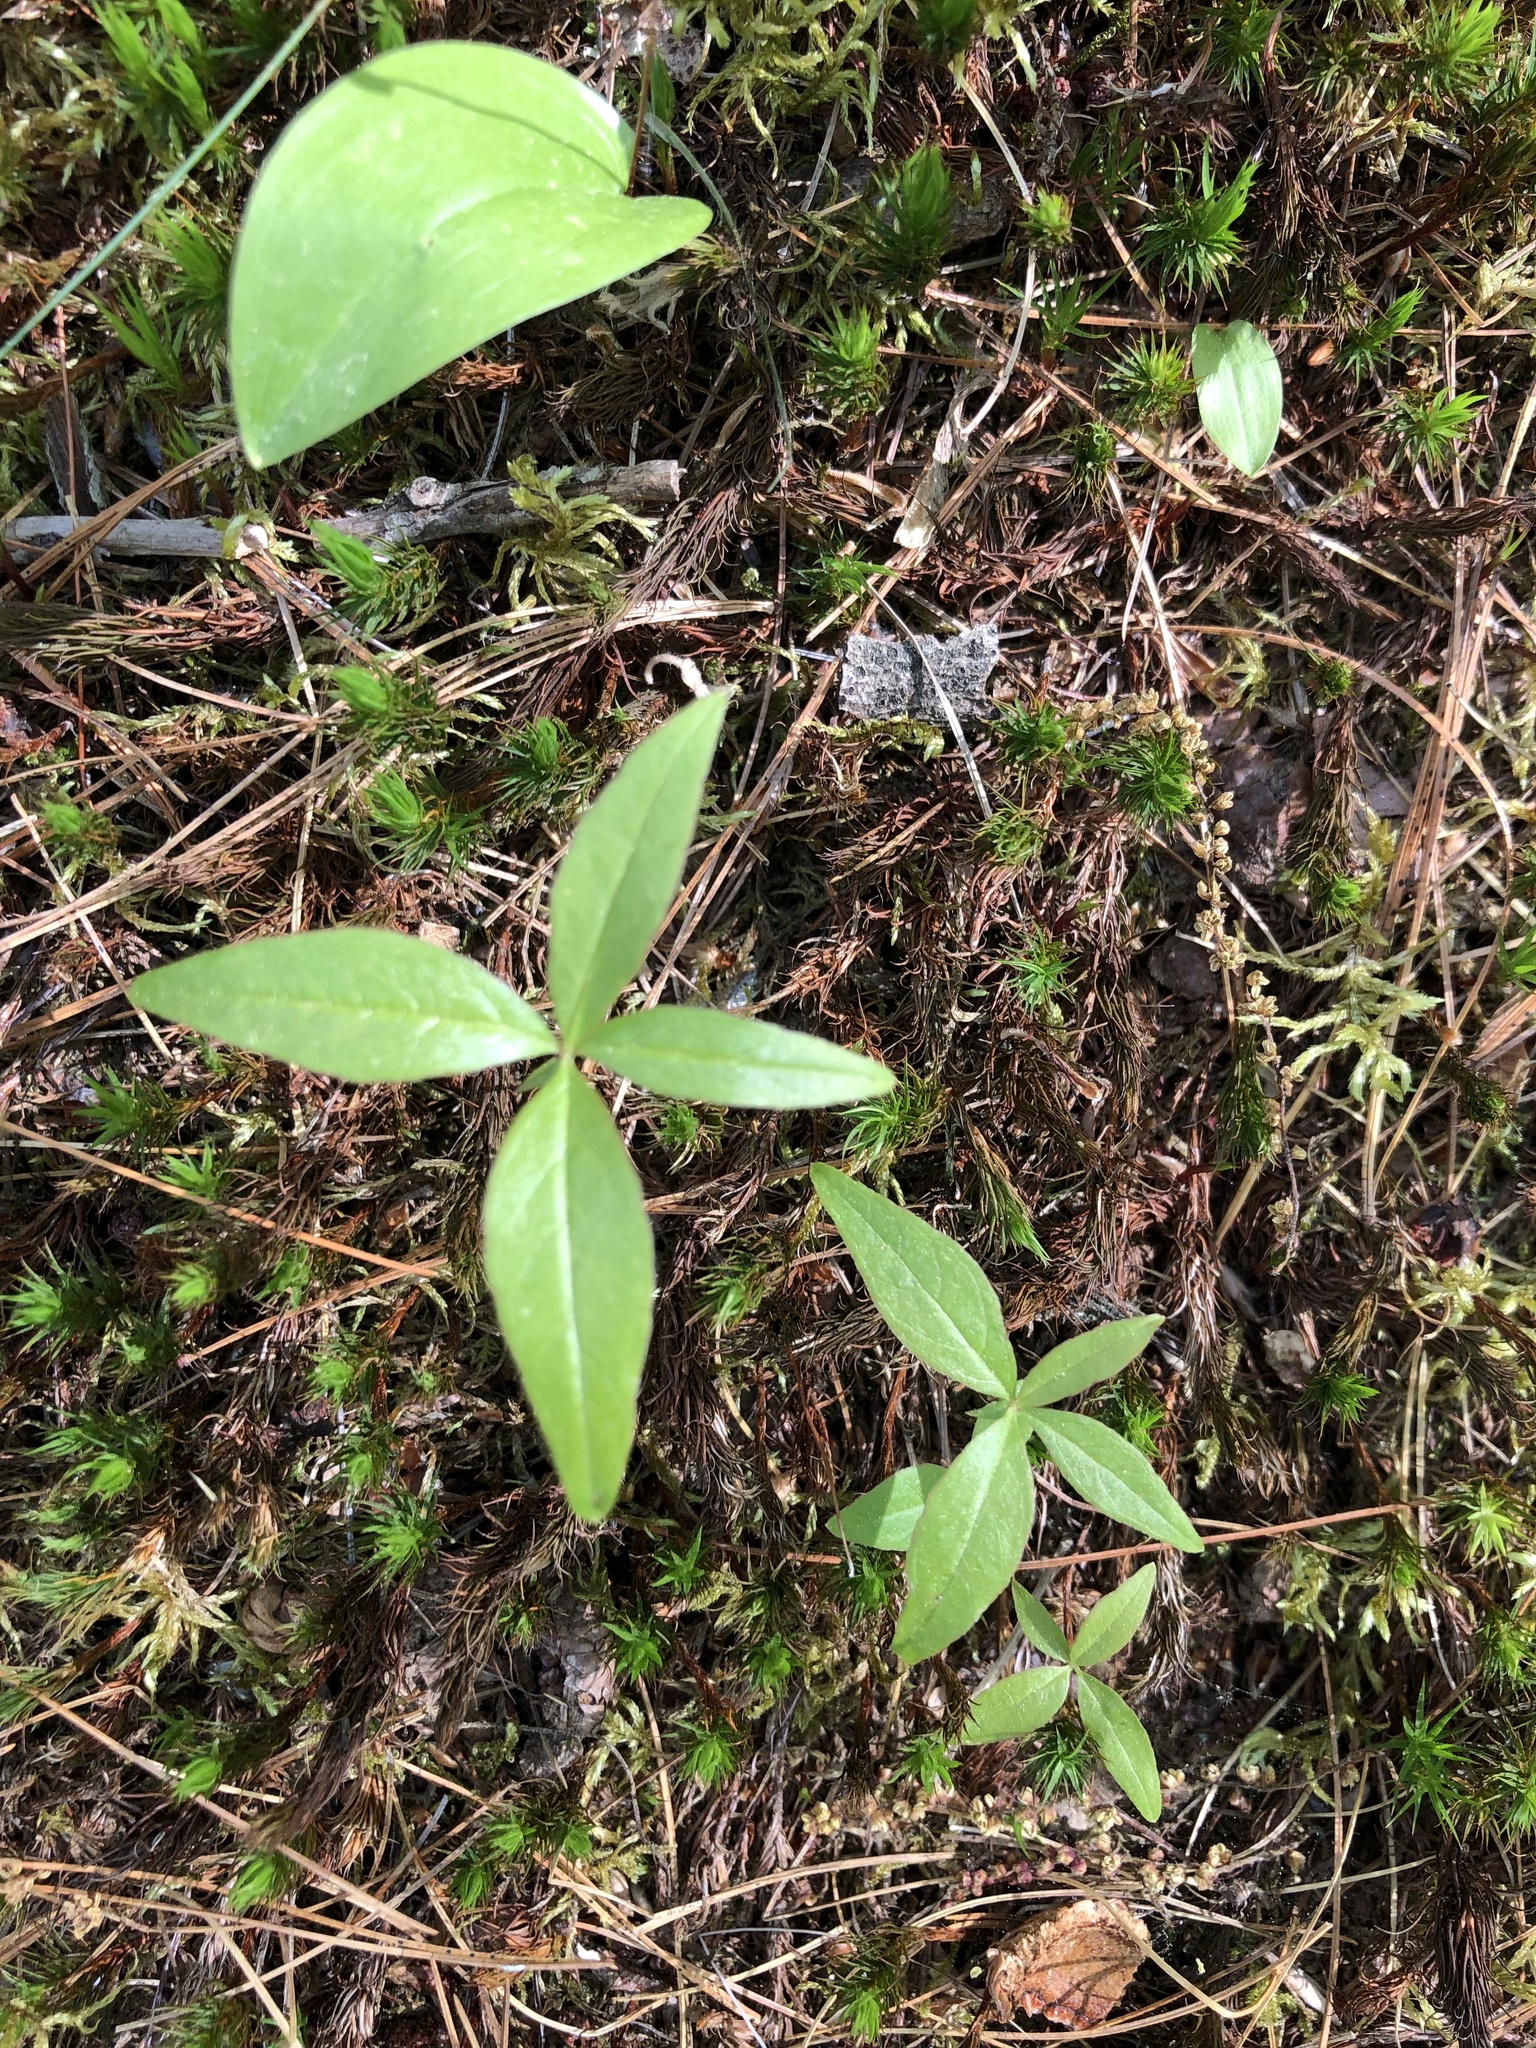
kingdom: Plantae
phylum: Tracheophyta
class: Magnoliopsida
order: Ericales
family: Primulaceae
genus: Lysimachia
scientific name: Lysimachia borealis
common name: American starflower
